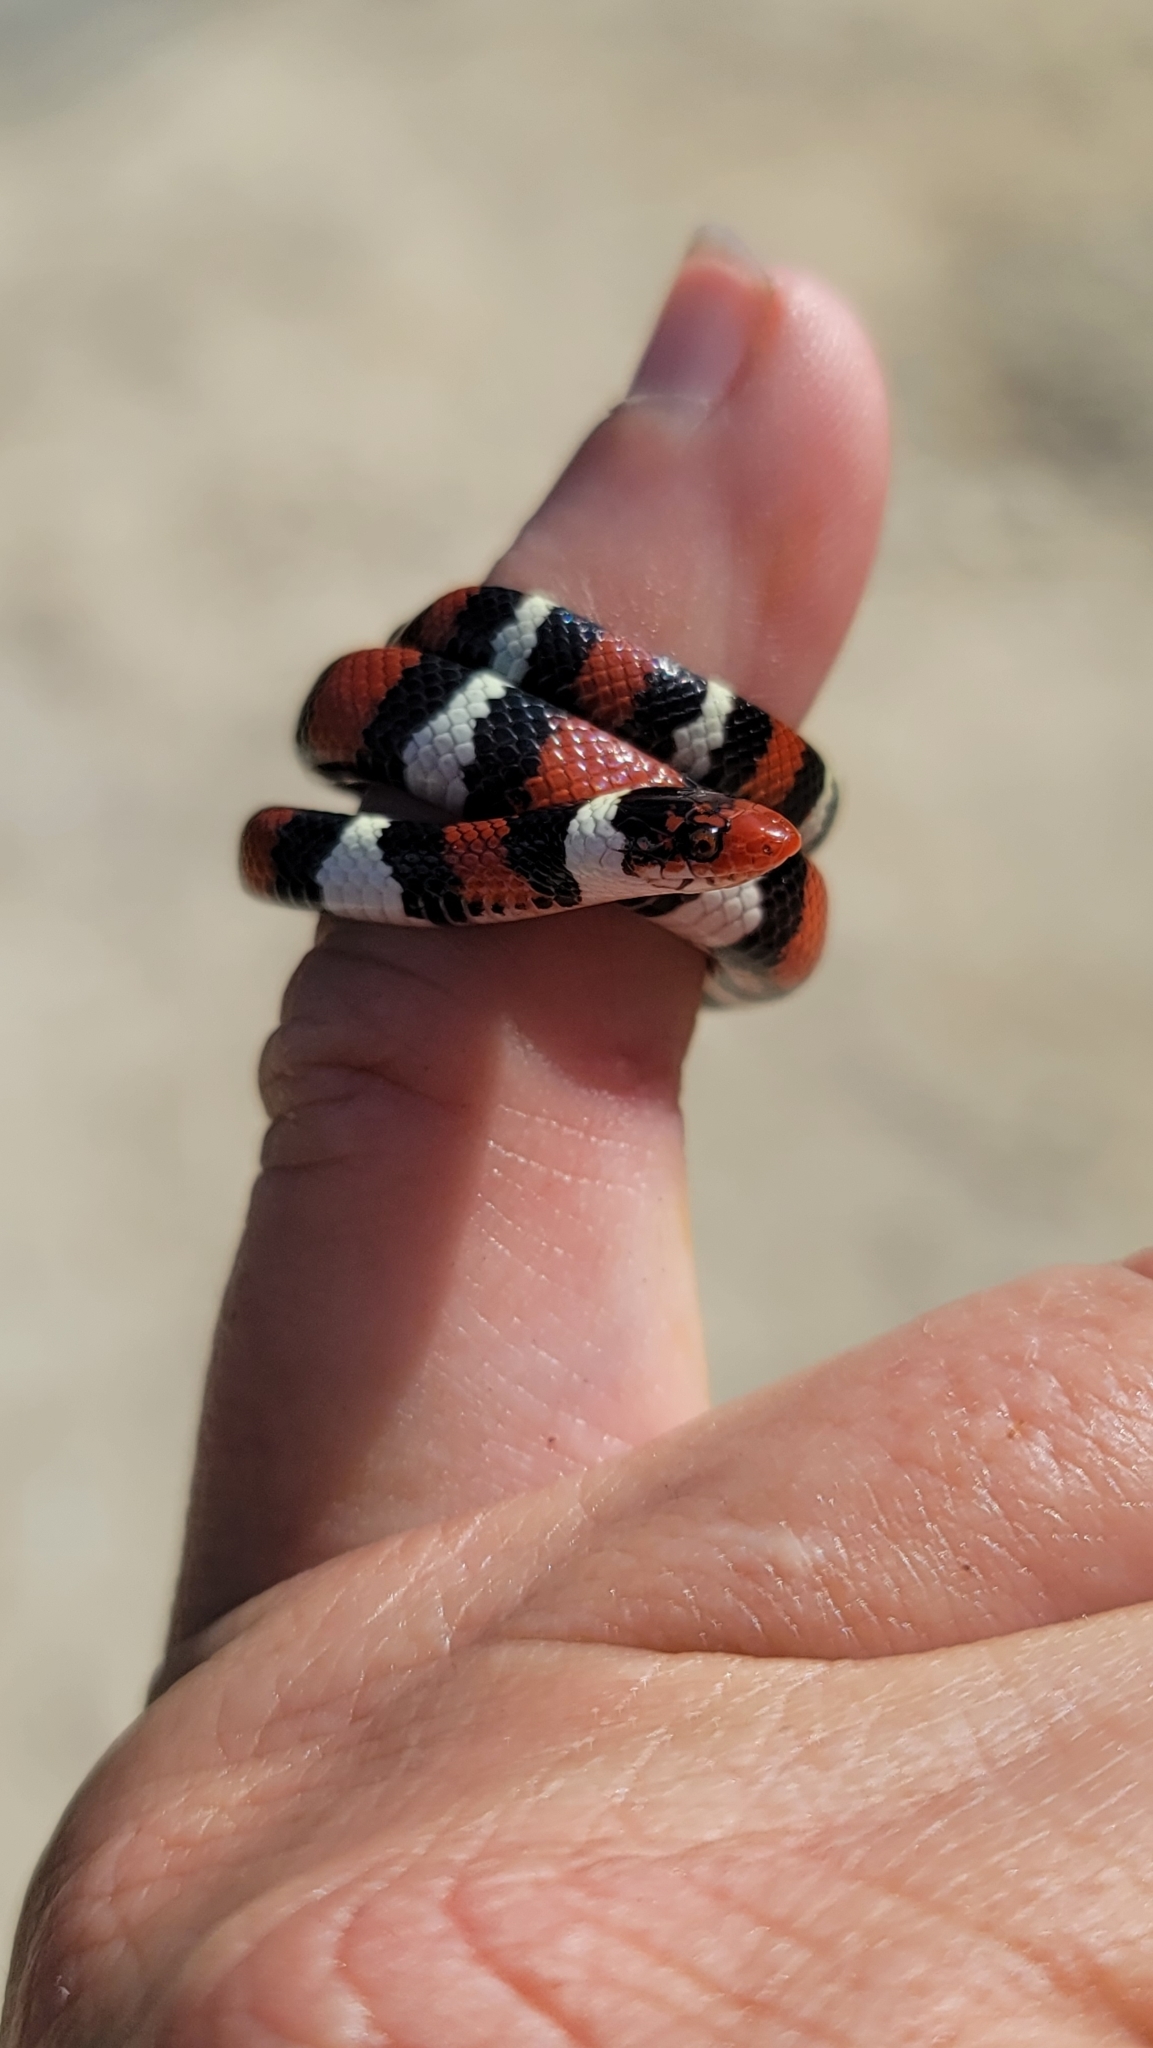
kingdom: Animalia
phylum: Chordata
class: Squamata
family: Colubridae
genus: Lampropeltis
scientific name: Lampropeltis elapsoides
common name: Scarlet kingsnake
